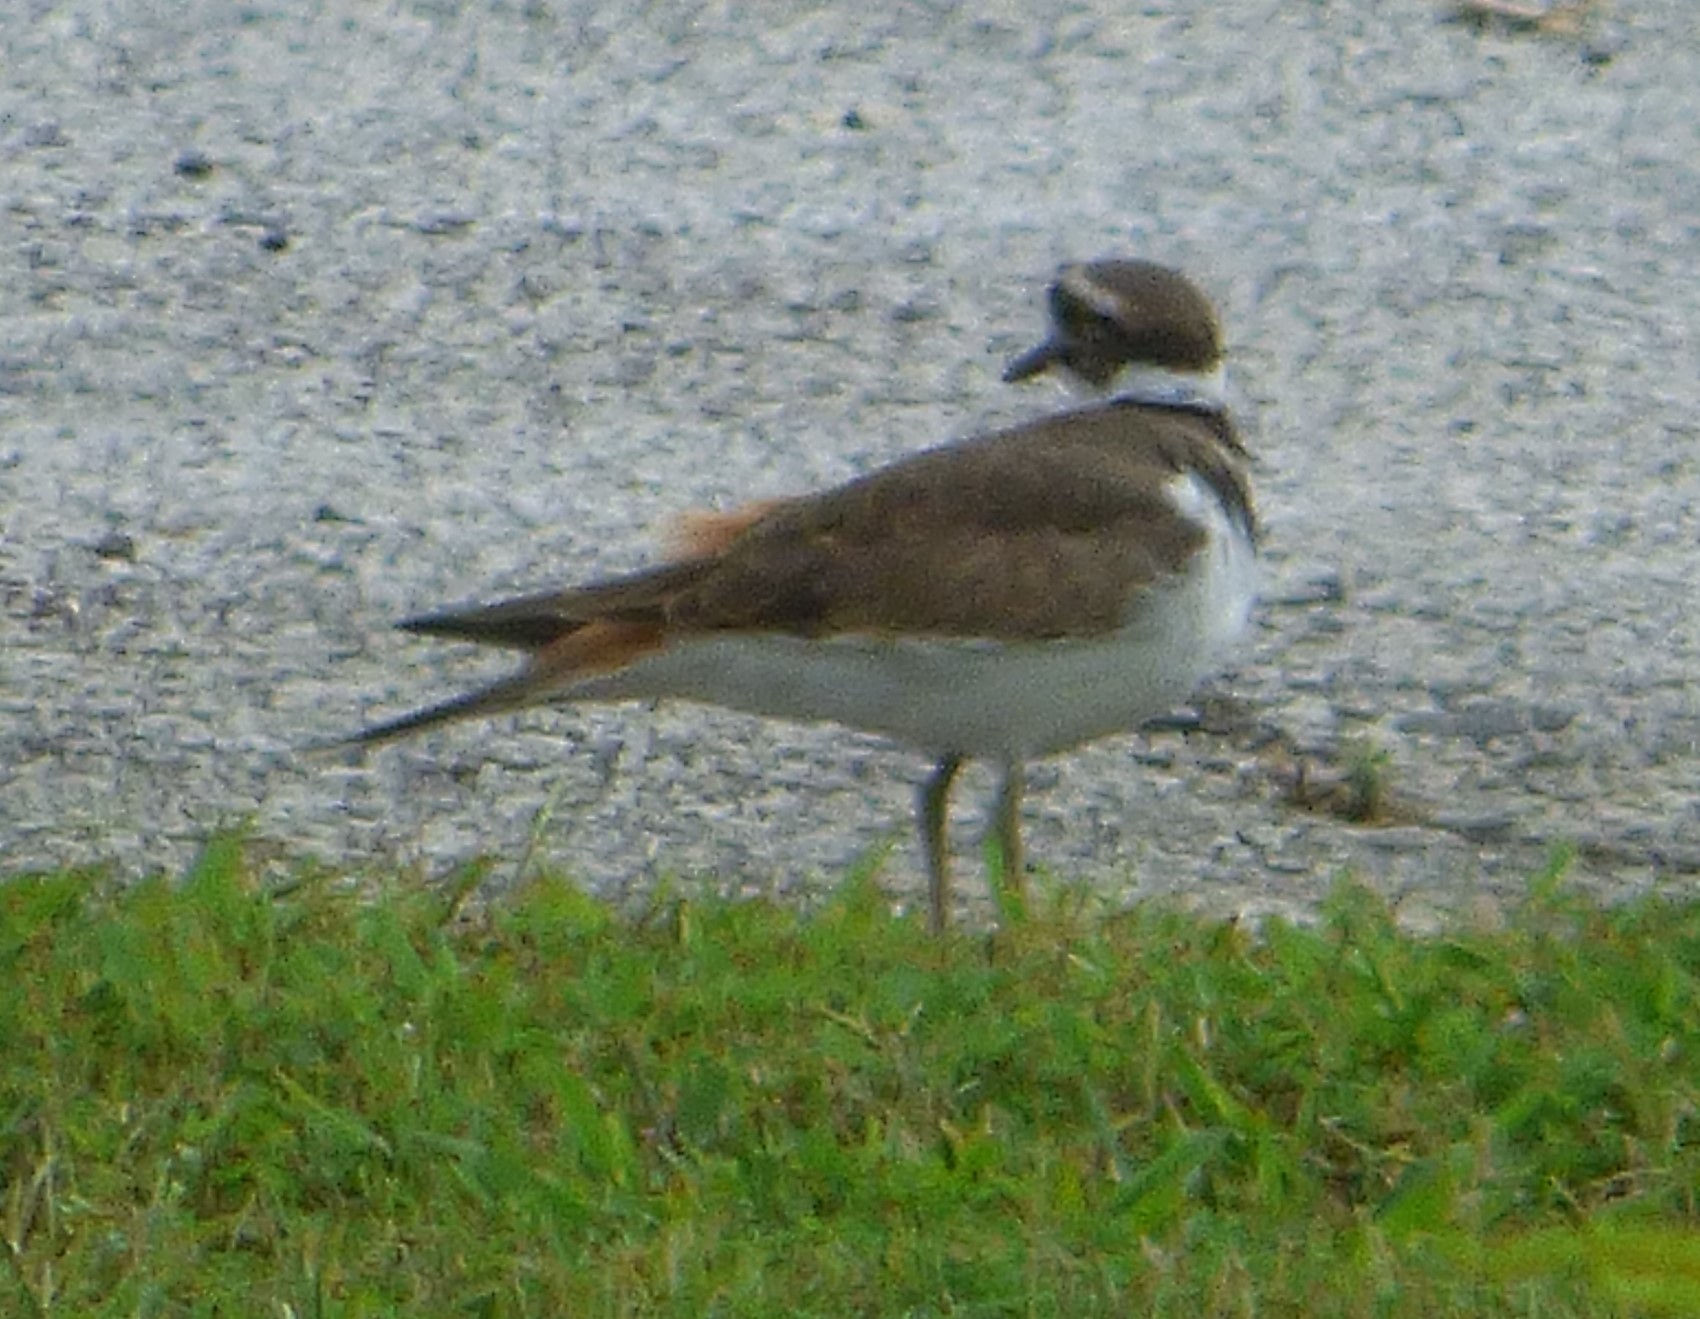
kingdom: Animalia
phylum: Chordata
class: Aves
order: Charadriiformes
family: Charadriidae
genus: Charadrius
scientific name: Charadrius vociferus
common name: Killdeer
